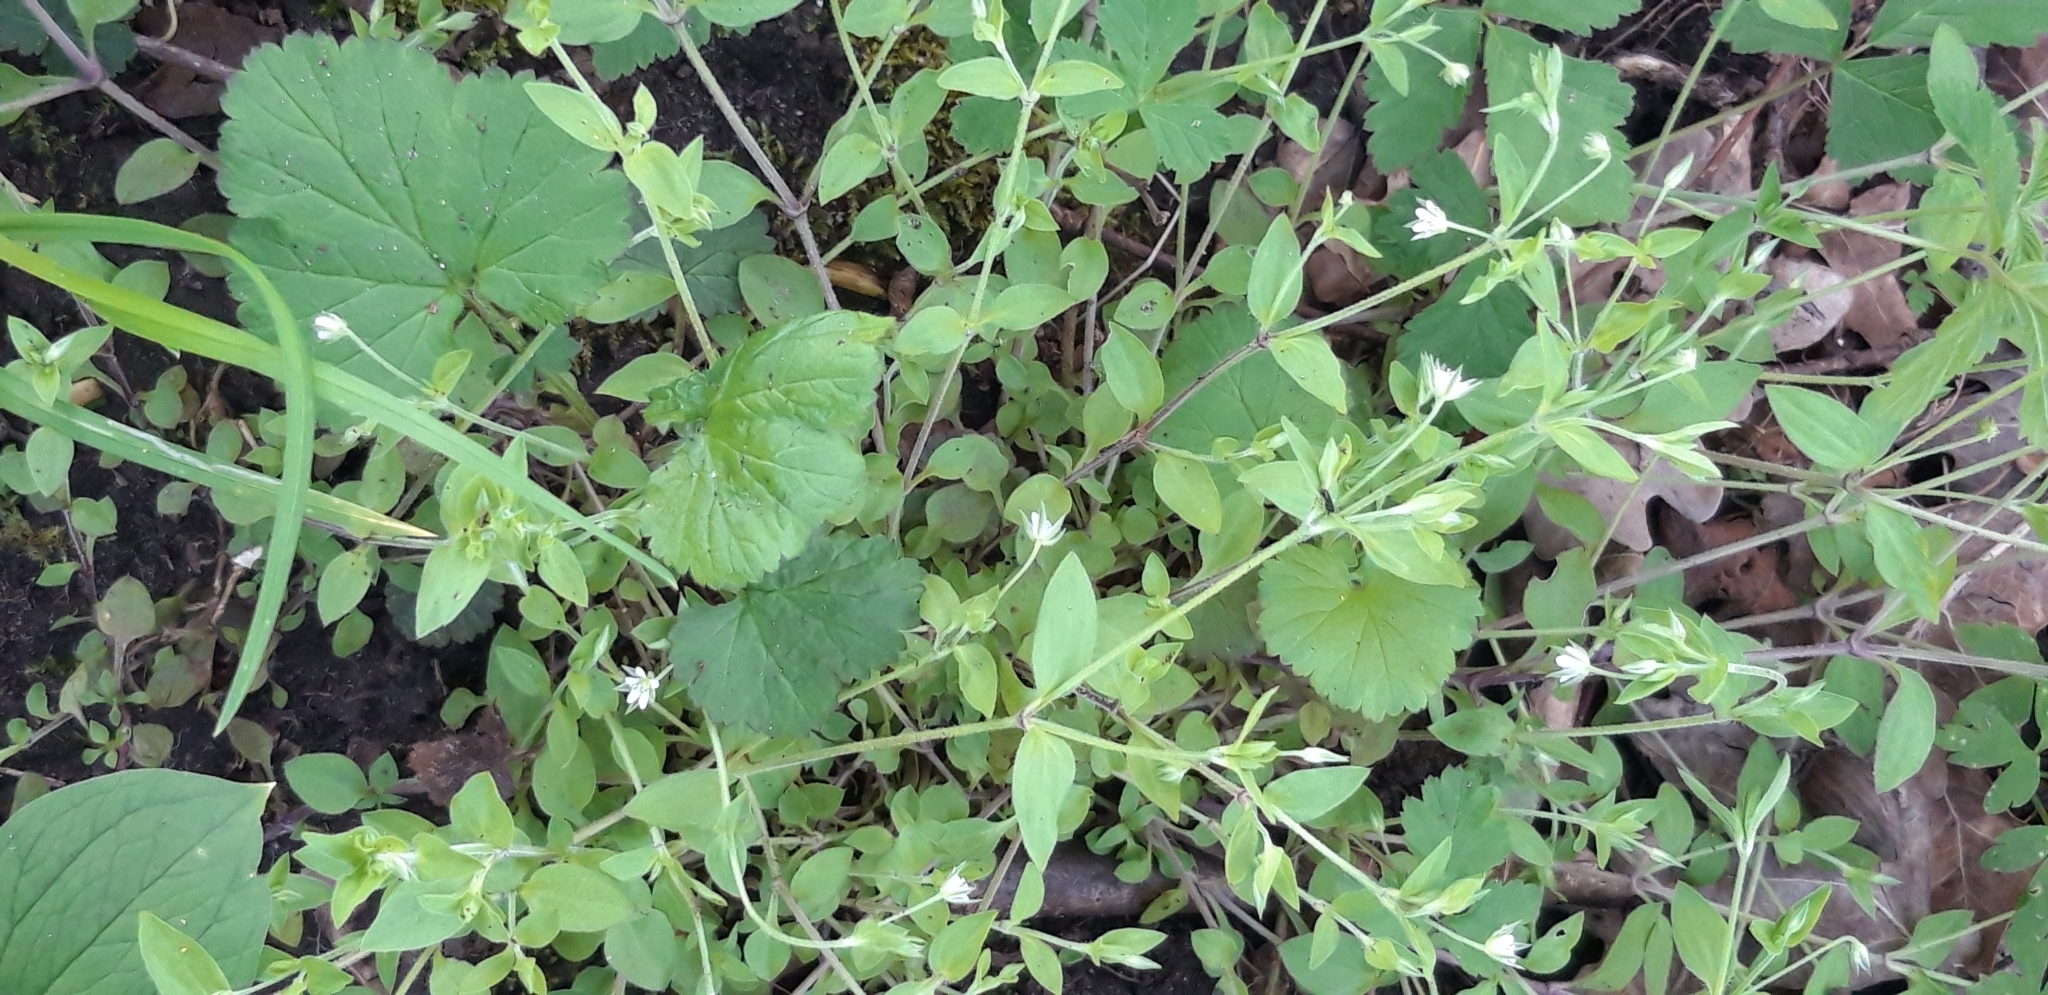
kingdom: Plantae
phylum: Tracheophyta
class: Magnoliopsida
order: Caryophyllales
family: Caryophyllaceae
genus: Moehringia
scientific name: Moehringia trinervia
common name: Three-nerved sandwort
